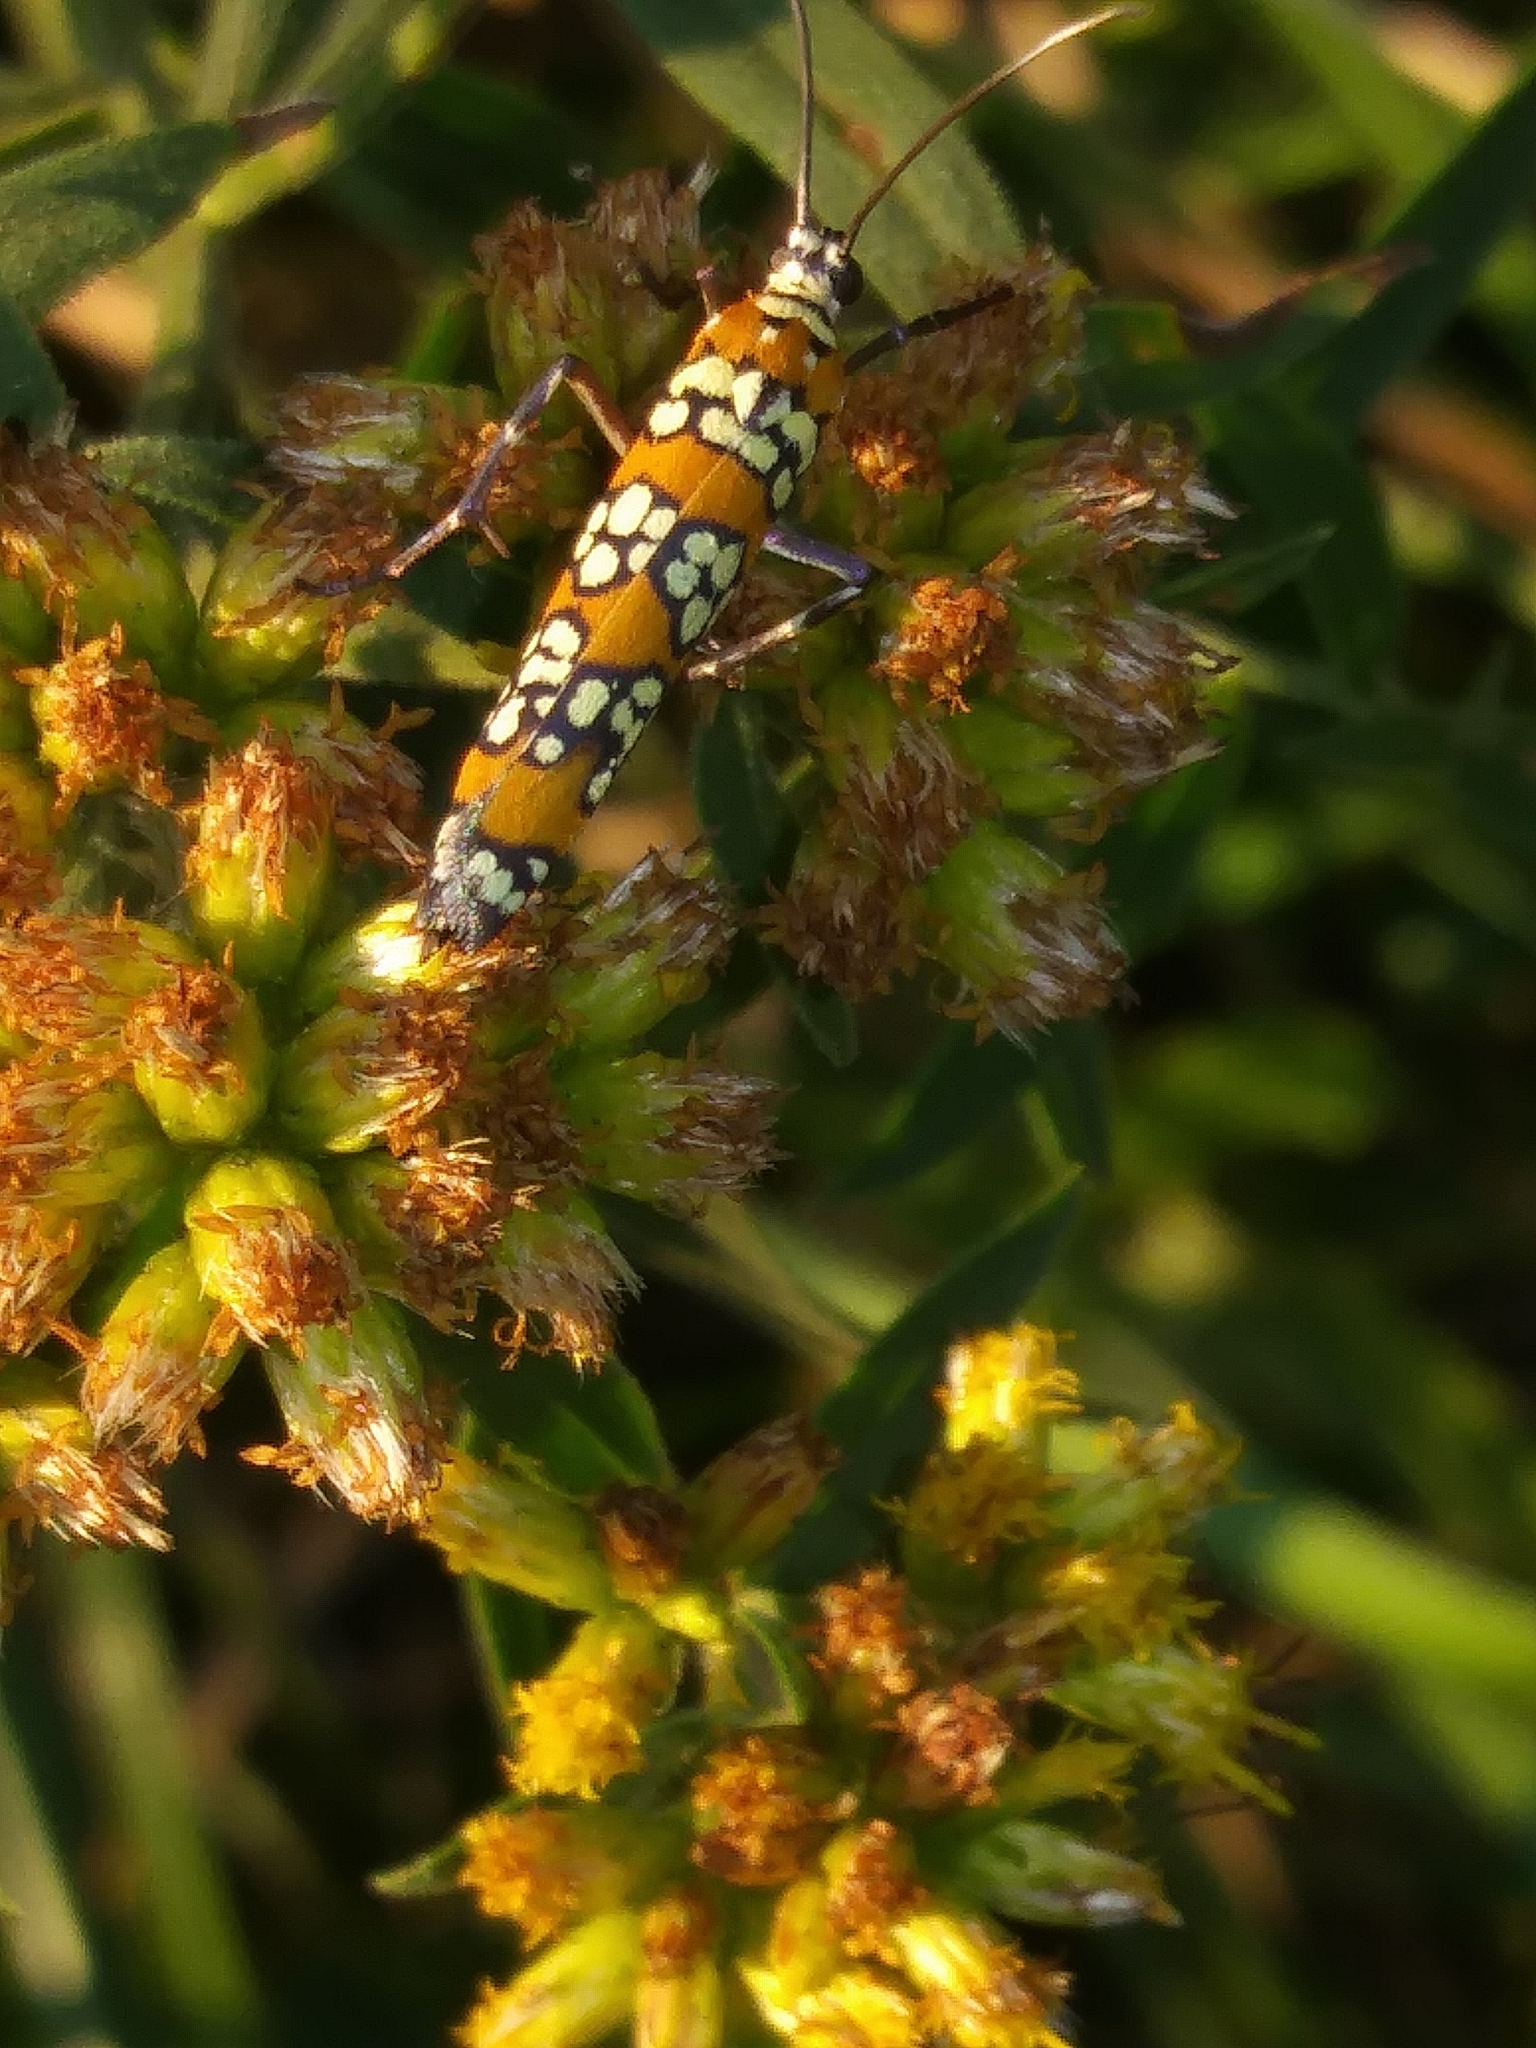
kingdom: Animalia
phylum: Arthropoda
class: Insecta
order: Lepidoptera
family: Attevidae
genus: Atteva
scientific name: Atteva punctella
